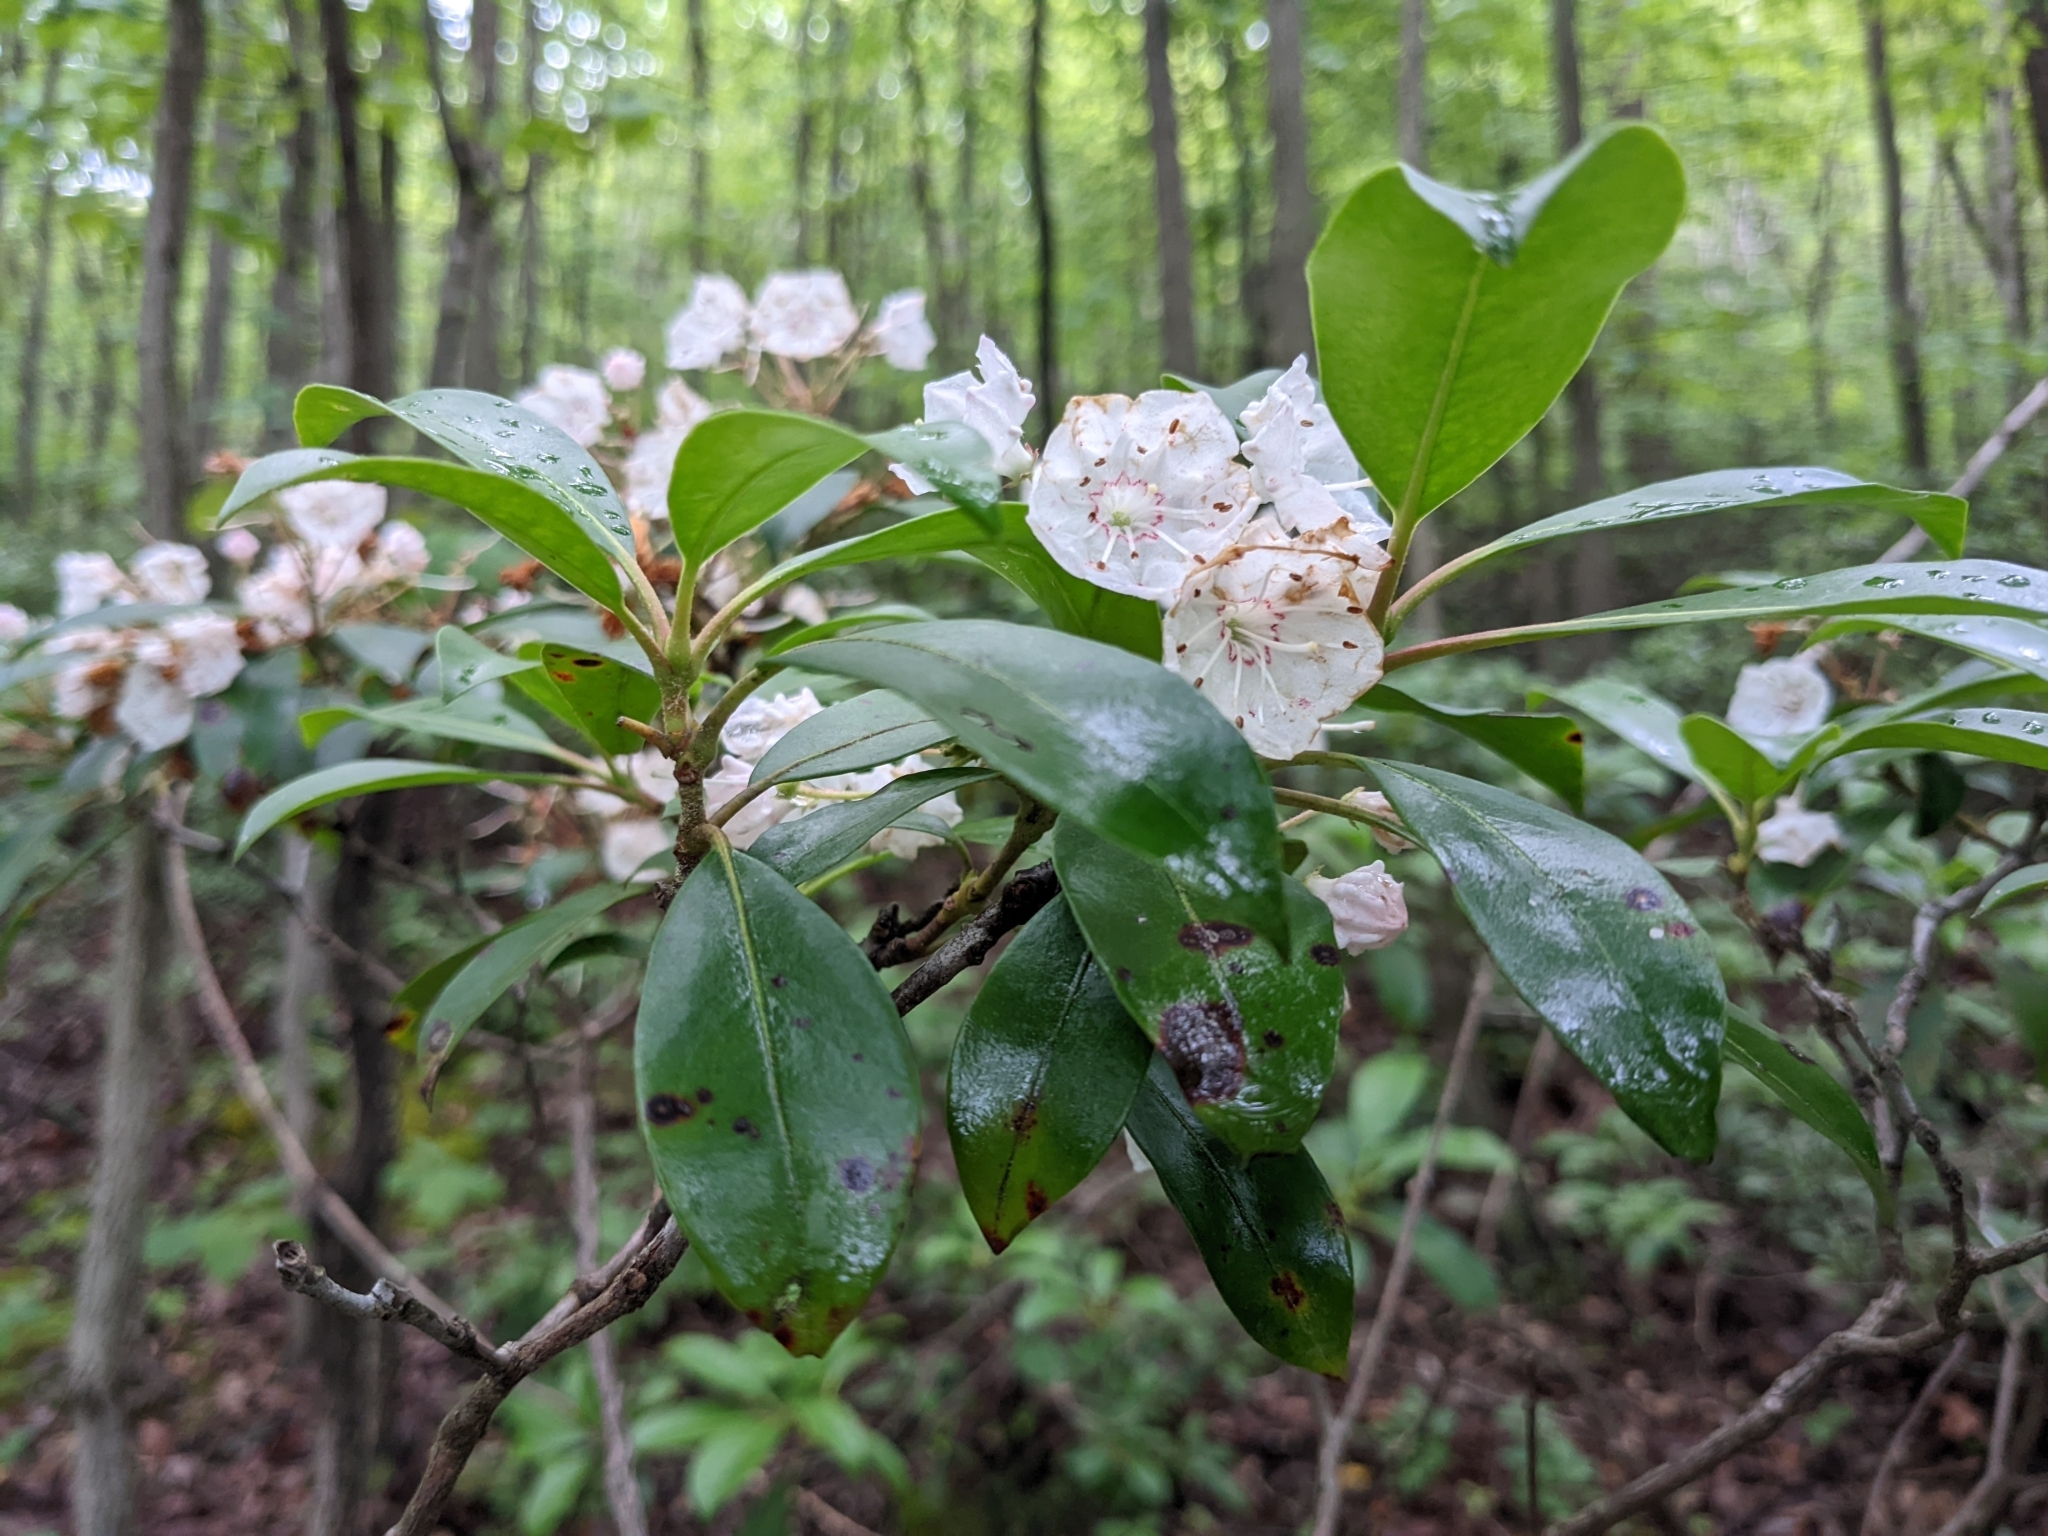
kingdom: Plantae
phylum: Tracheophyta
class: Magnoliopsida
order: Ericales
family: Ericaceae
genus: Kalmia
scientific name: Kalmia latifolia
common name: Mountain-laurel
